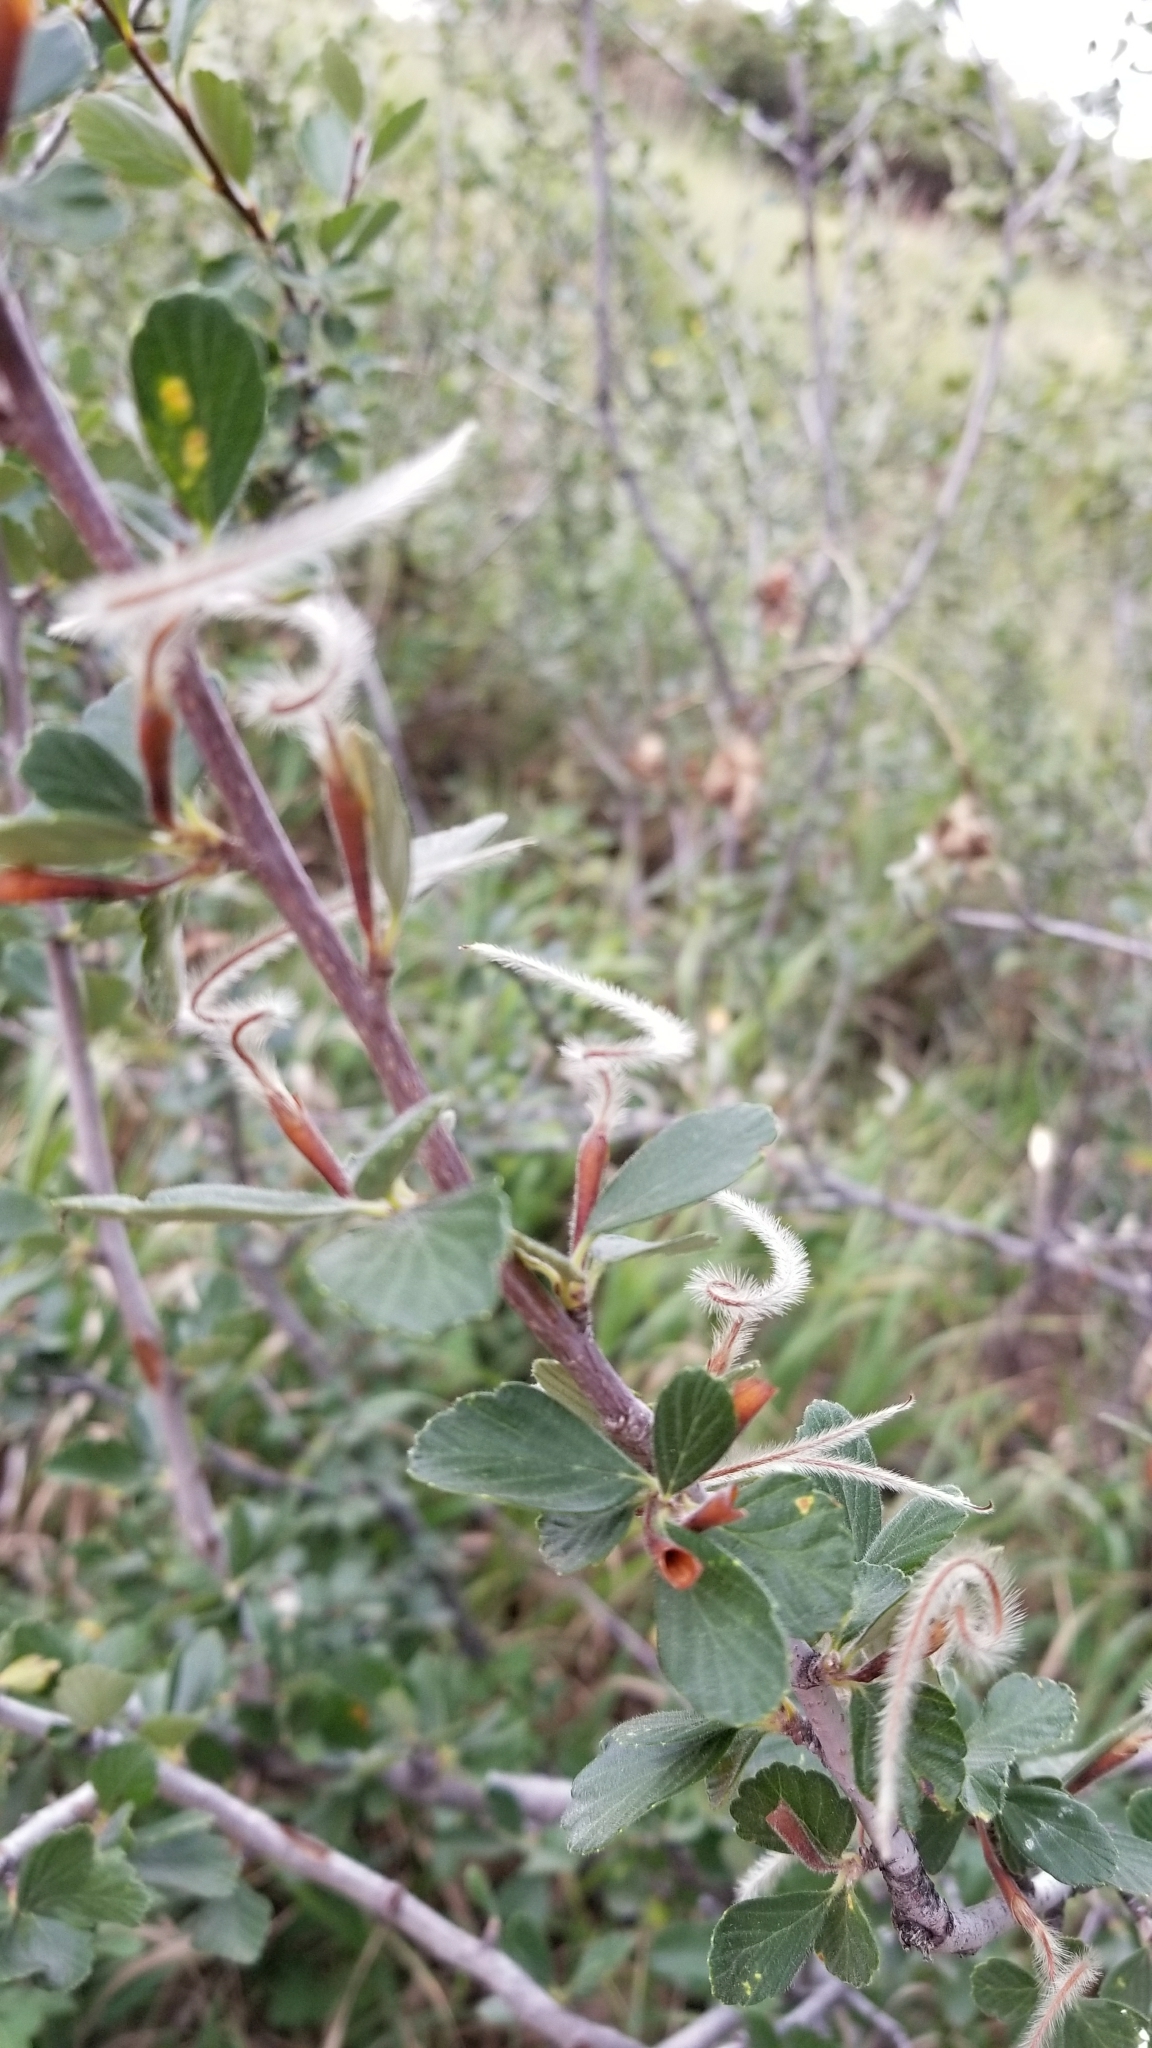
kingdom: Plantae
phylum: Tracheophyta
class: Magnoliopsida
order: Rosales
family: Rosaceae
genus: Cercocarpus
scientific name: Cercocarpus montanus
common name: Alder-leaf cercocarpus
